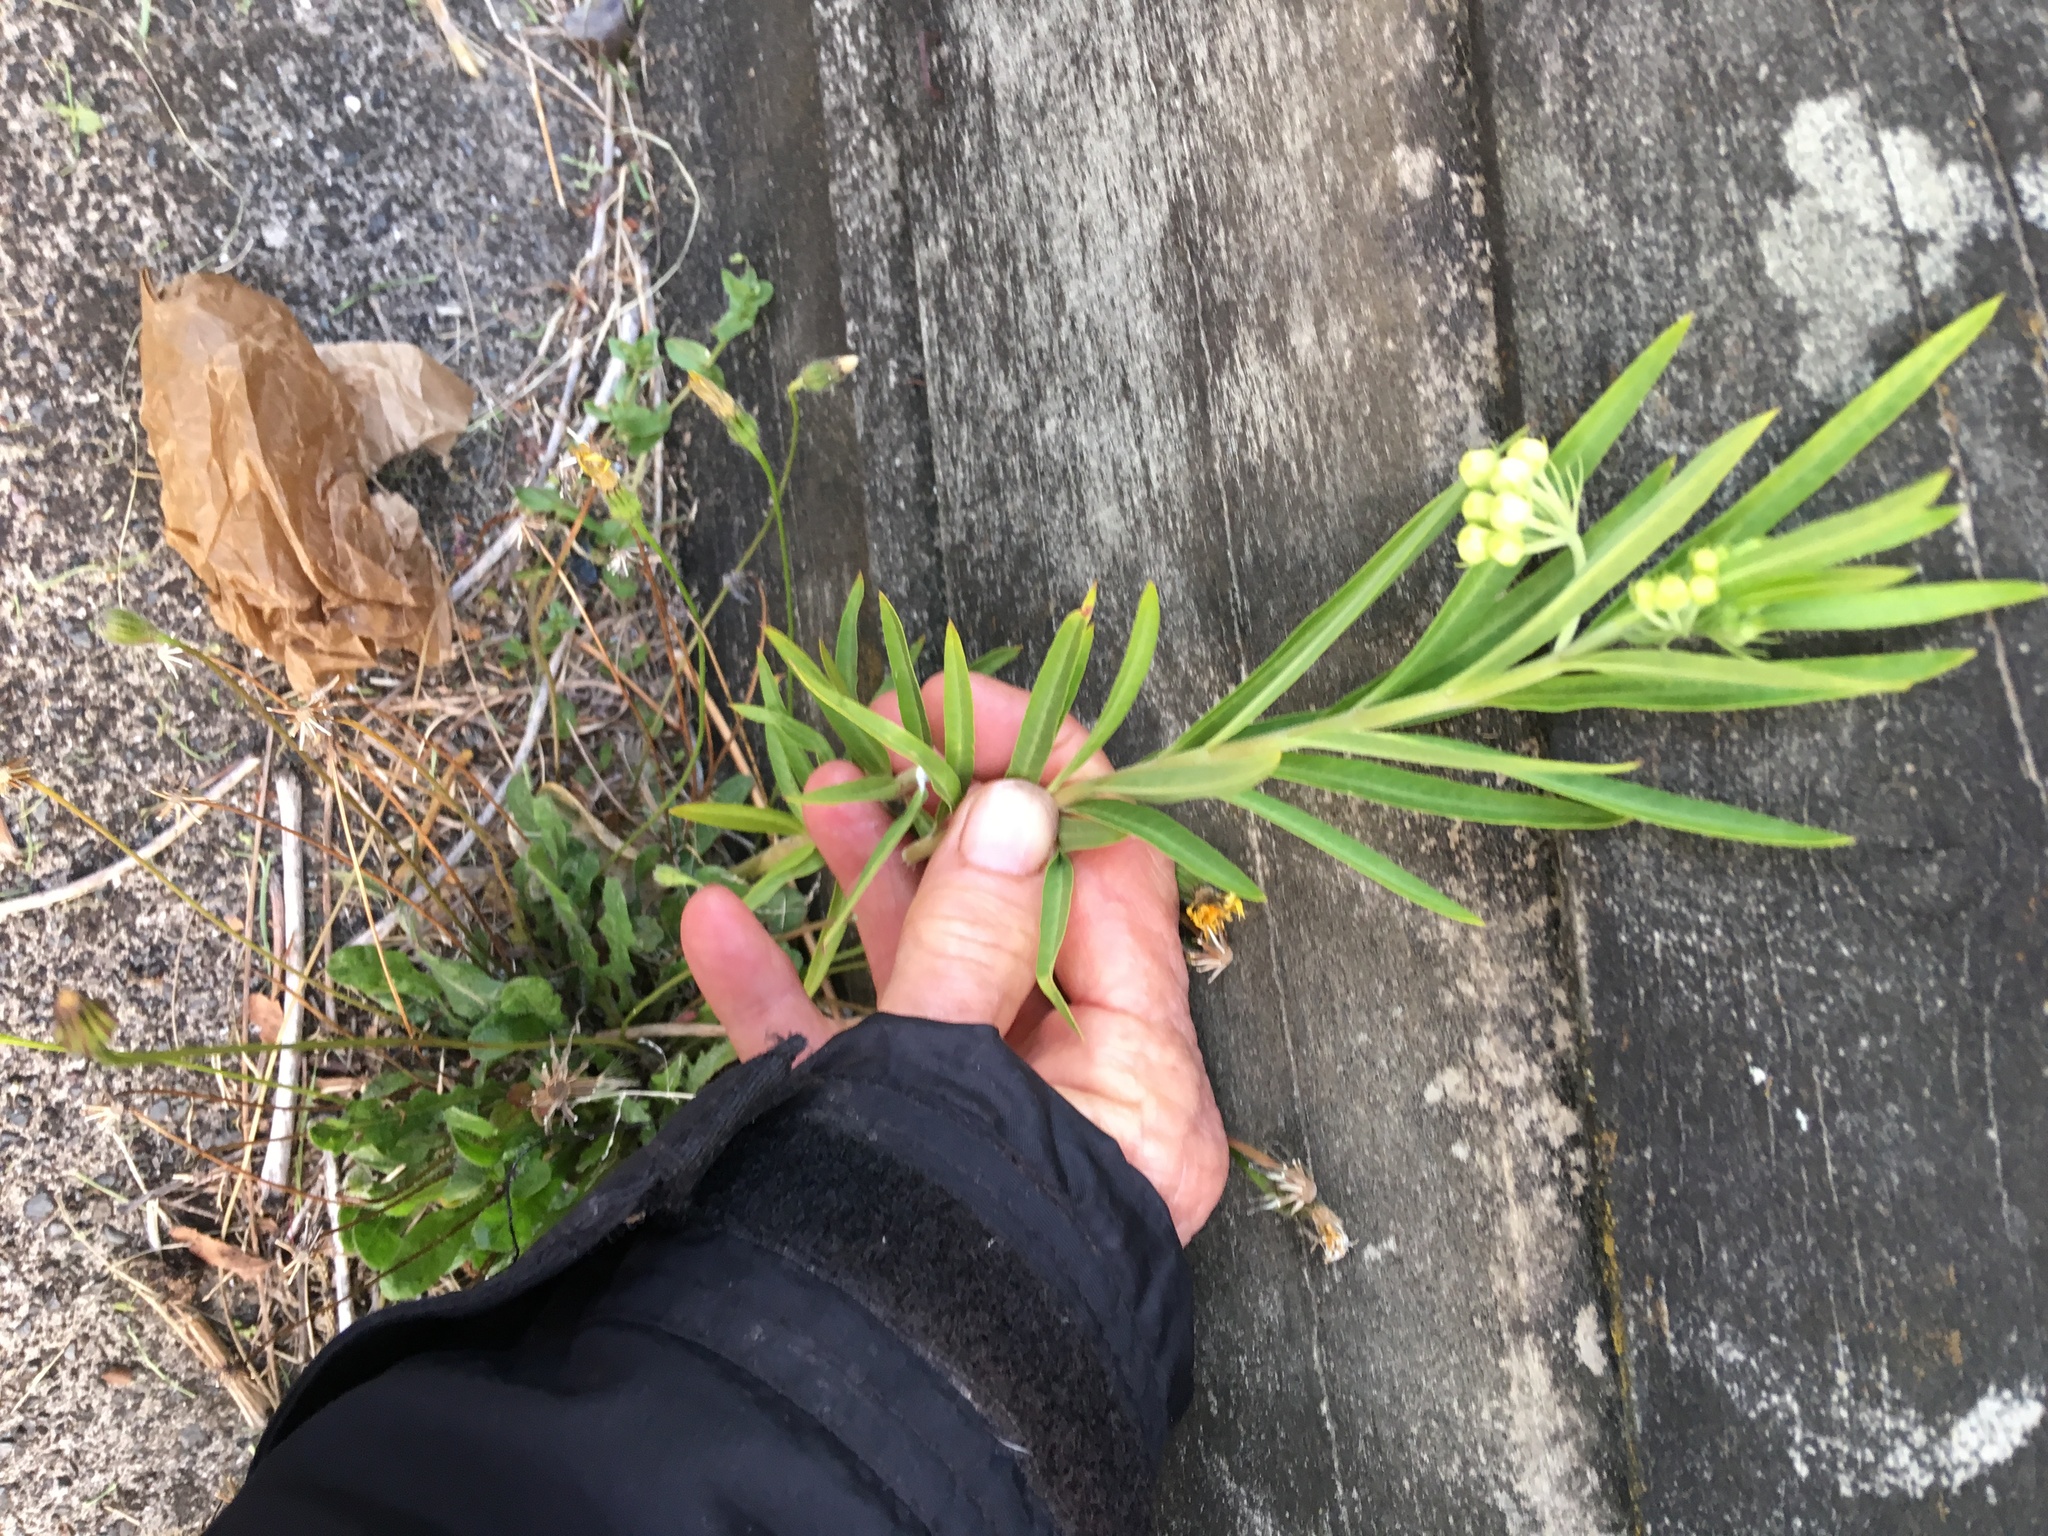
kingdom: Plantae
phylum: Tracheophyta
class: Magnoliopsida
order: Gentianales
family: Apocynaceae
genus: Gomphocarpus
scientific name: Gomphocarpus physocarpus
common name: Balloon cotton bush
